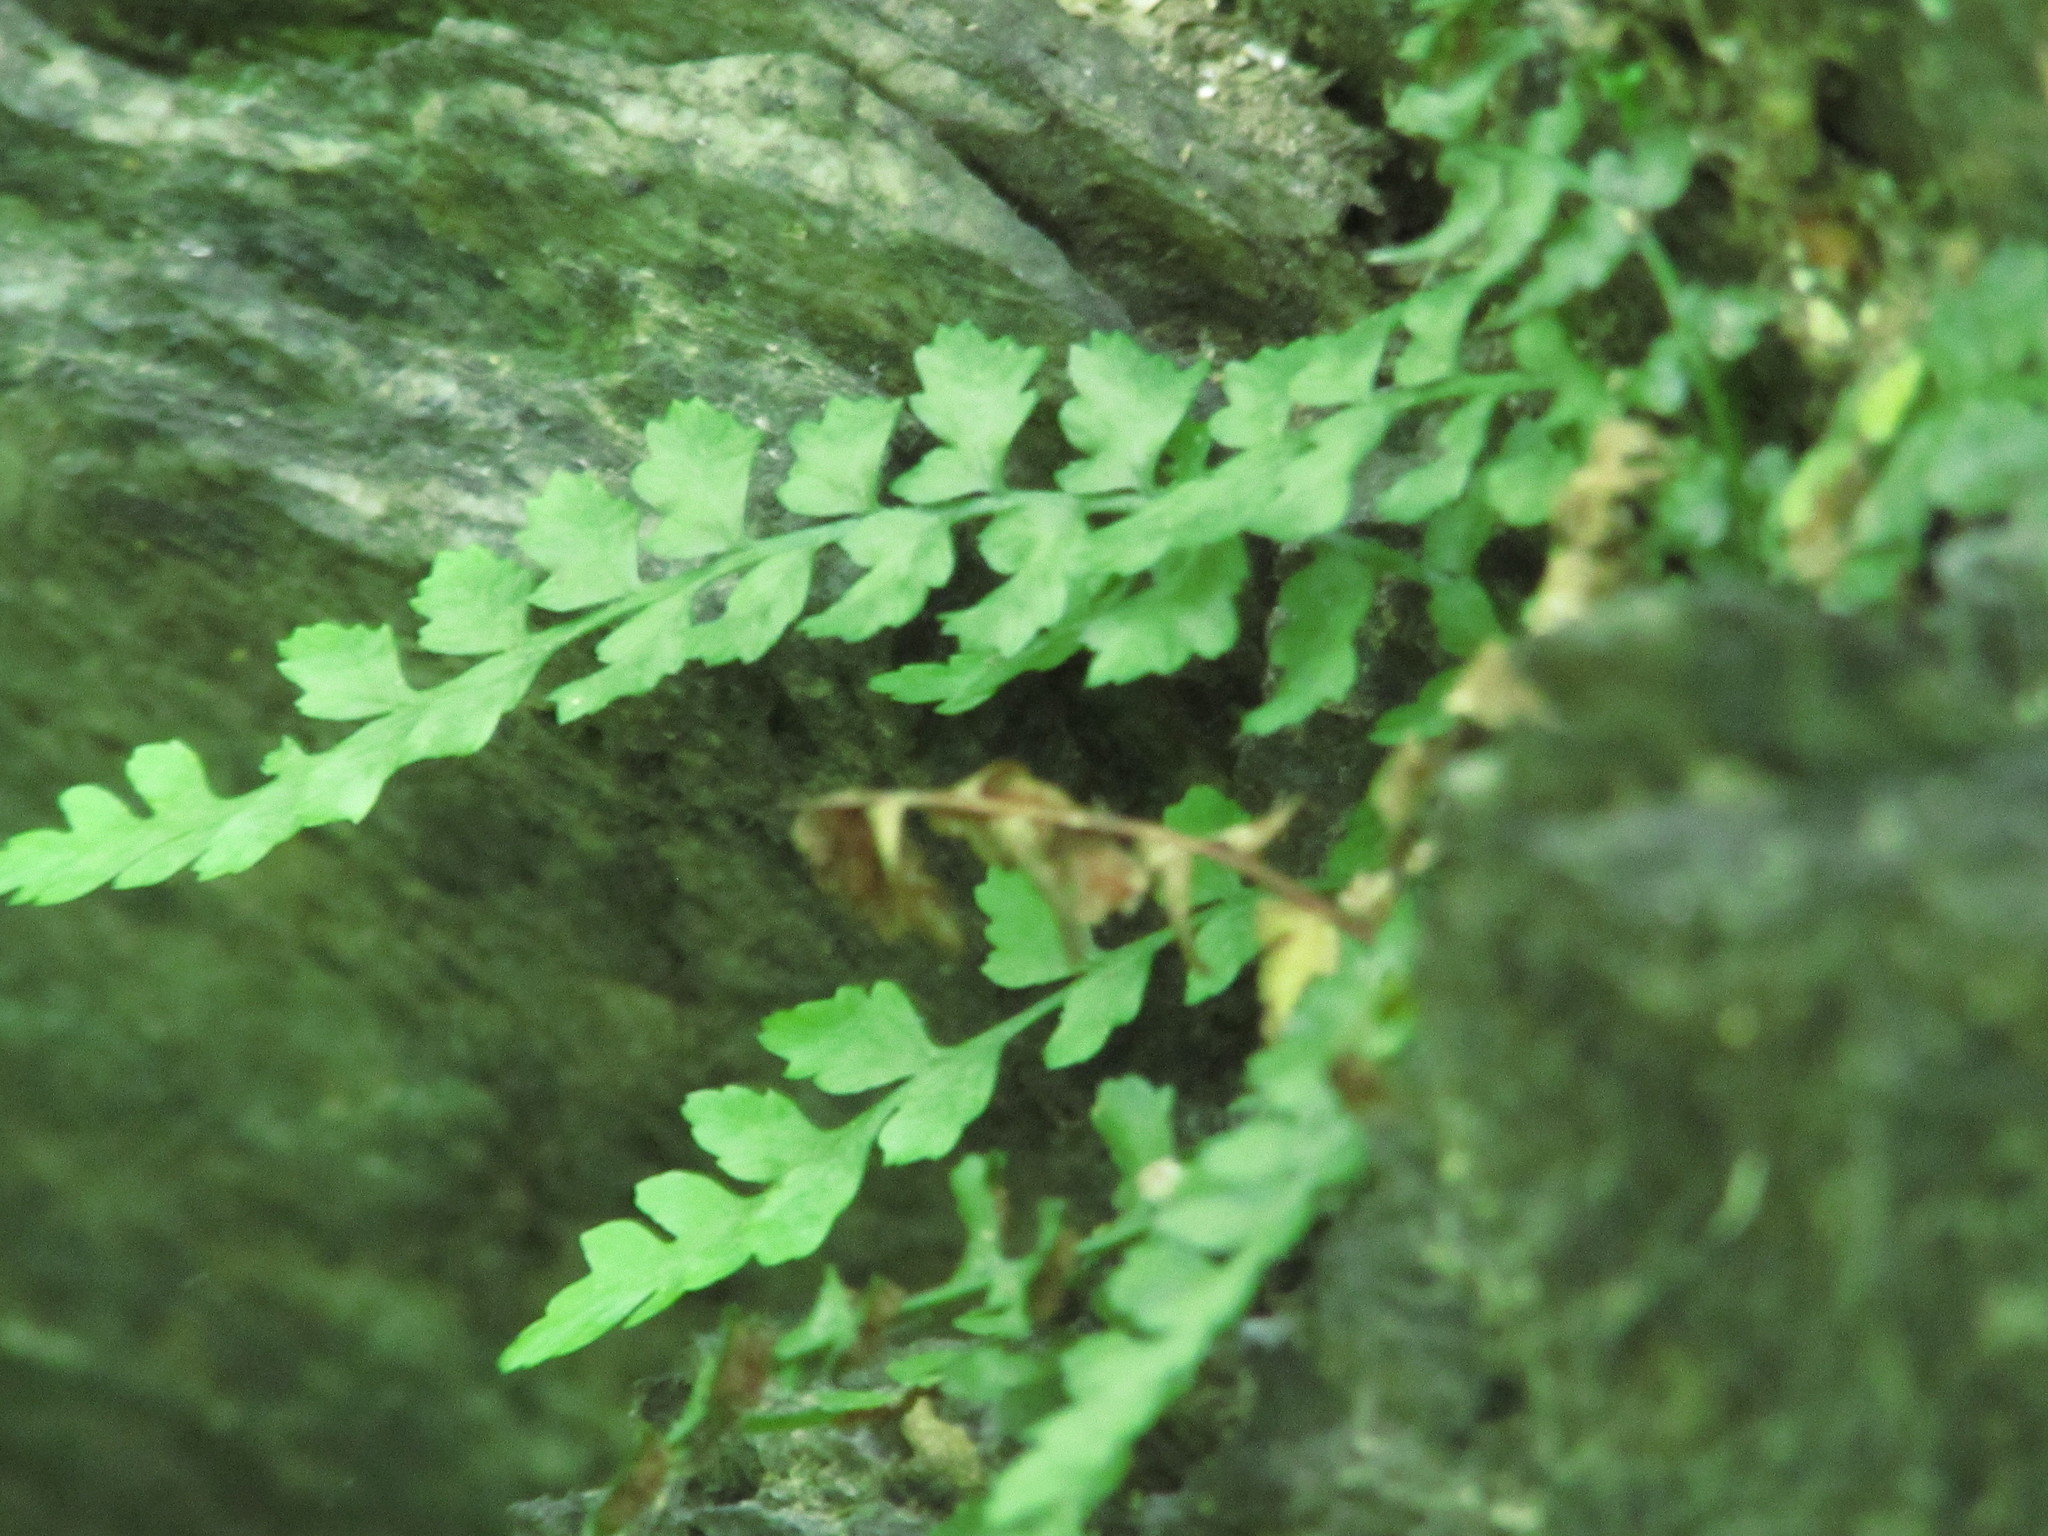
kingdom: Plantae
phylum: Tracheophyta
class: Polypodiopsida
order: Polypodiales
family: Aspleniaceae
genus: Asplenium
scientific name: Asplenium bradleyi
